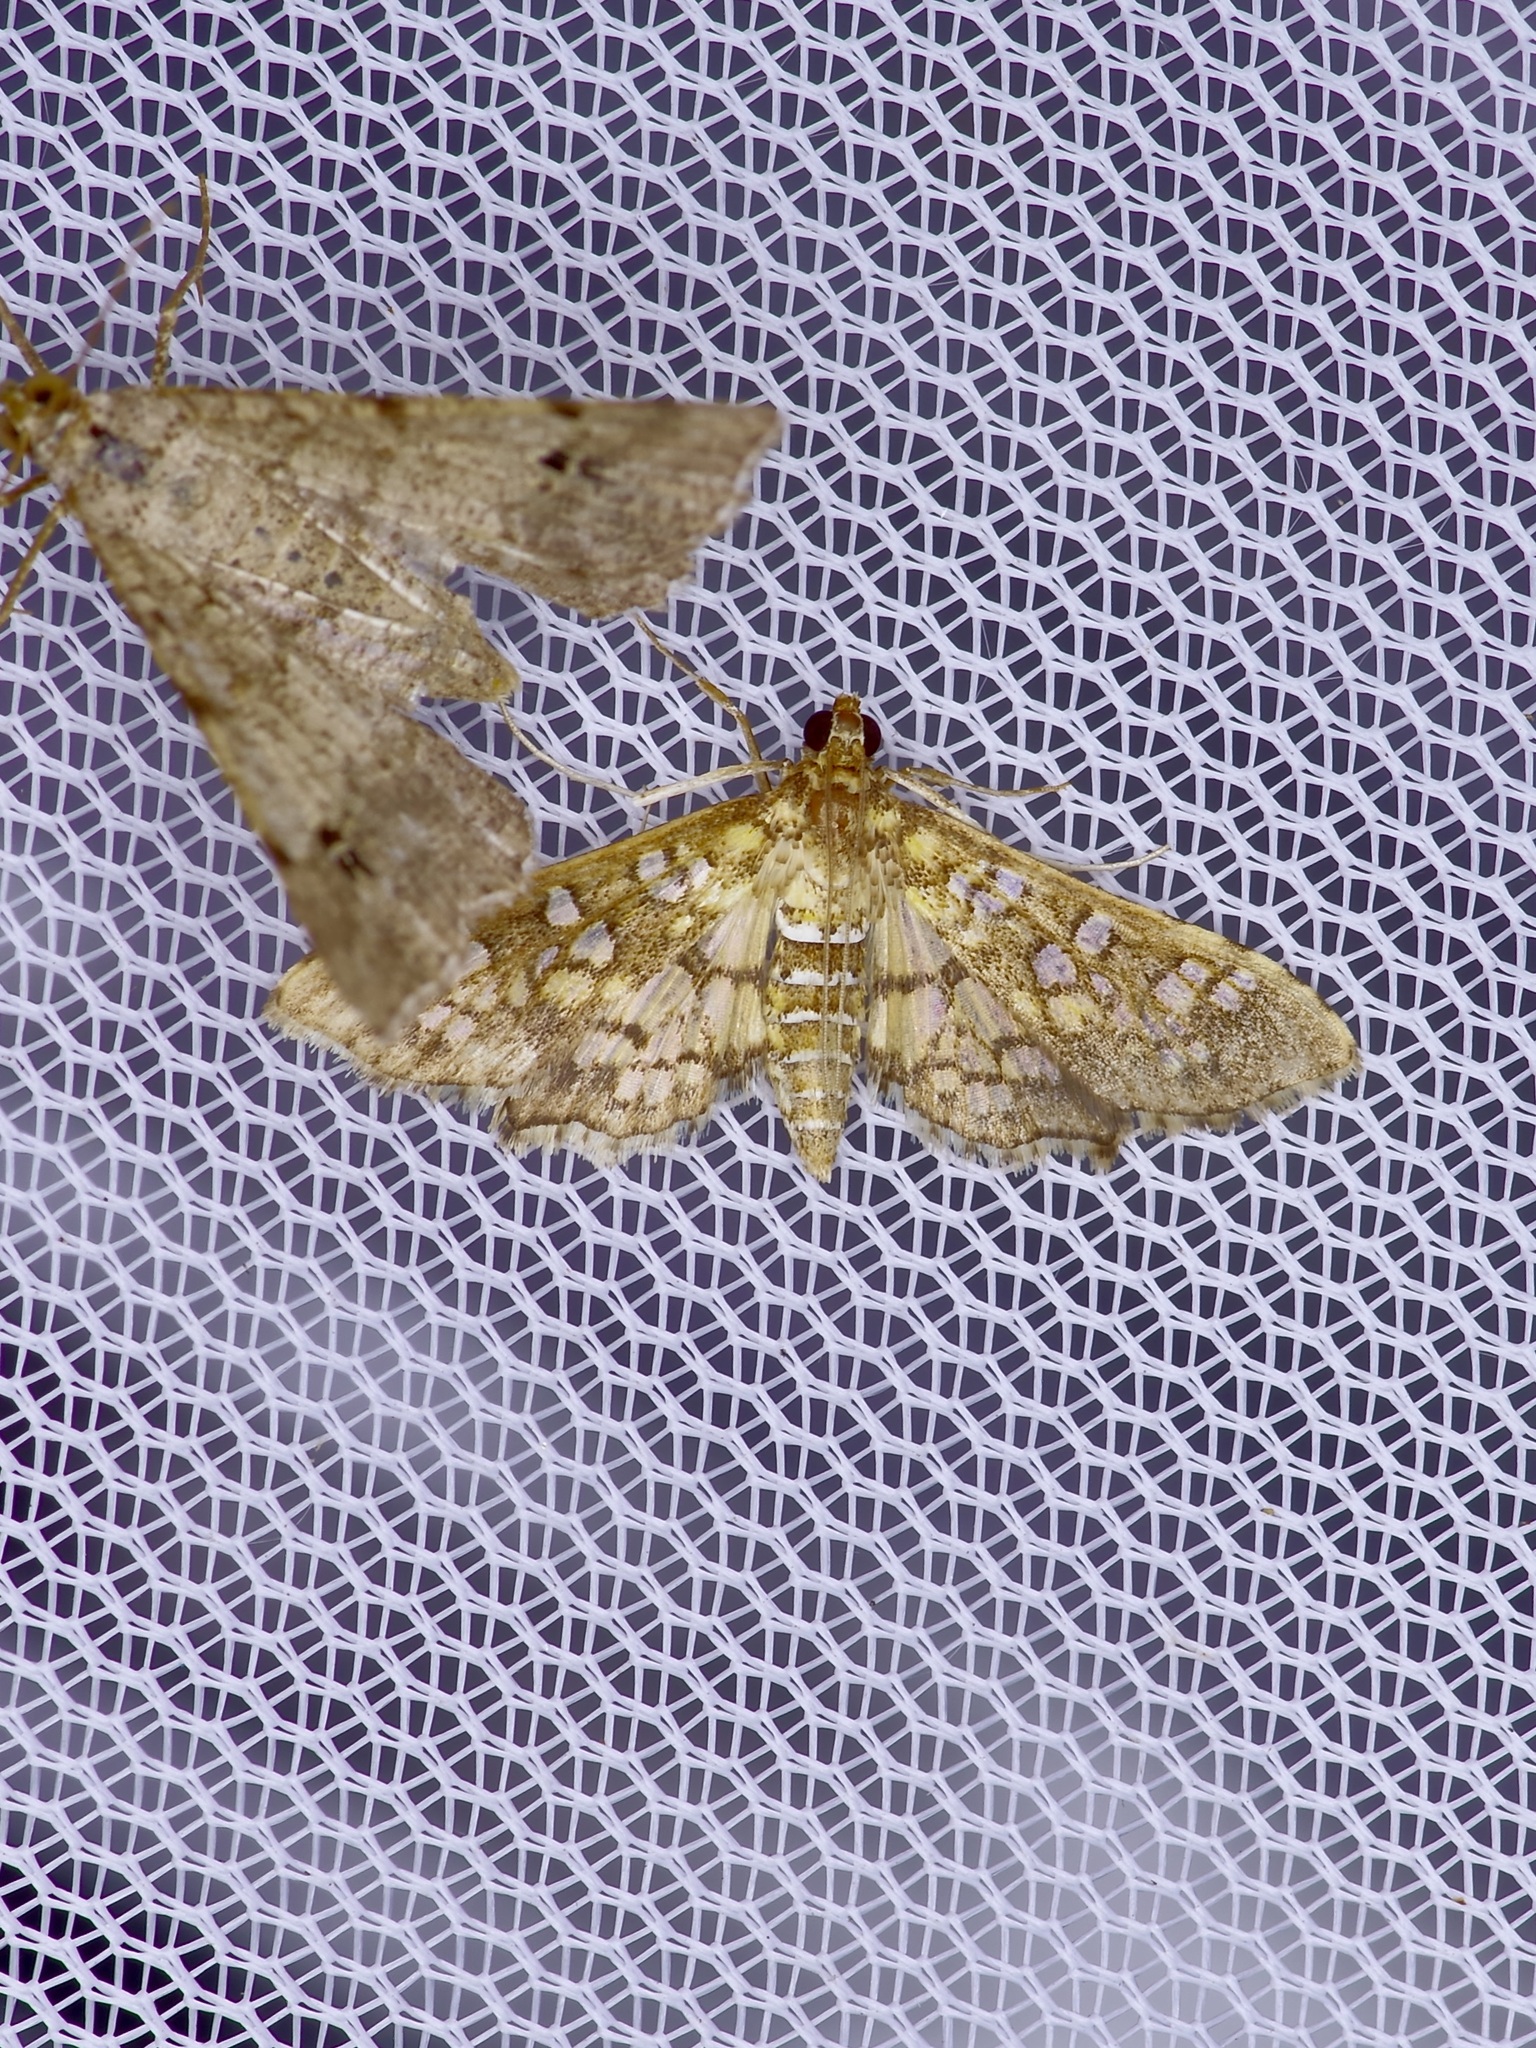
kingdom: Animalia
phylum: Arthropoda
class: Insecta
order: Lepidoptera
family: Crambidae
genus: Samea
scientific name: Samea ecclesialis
